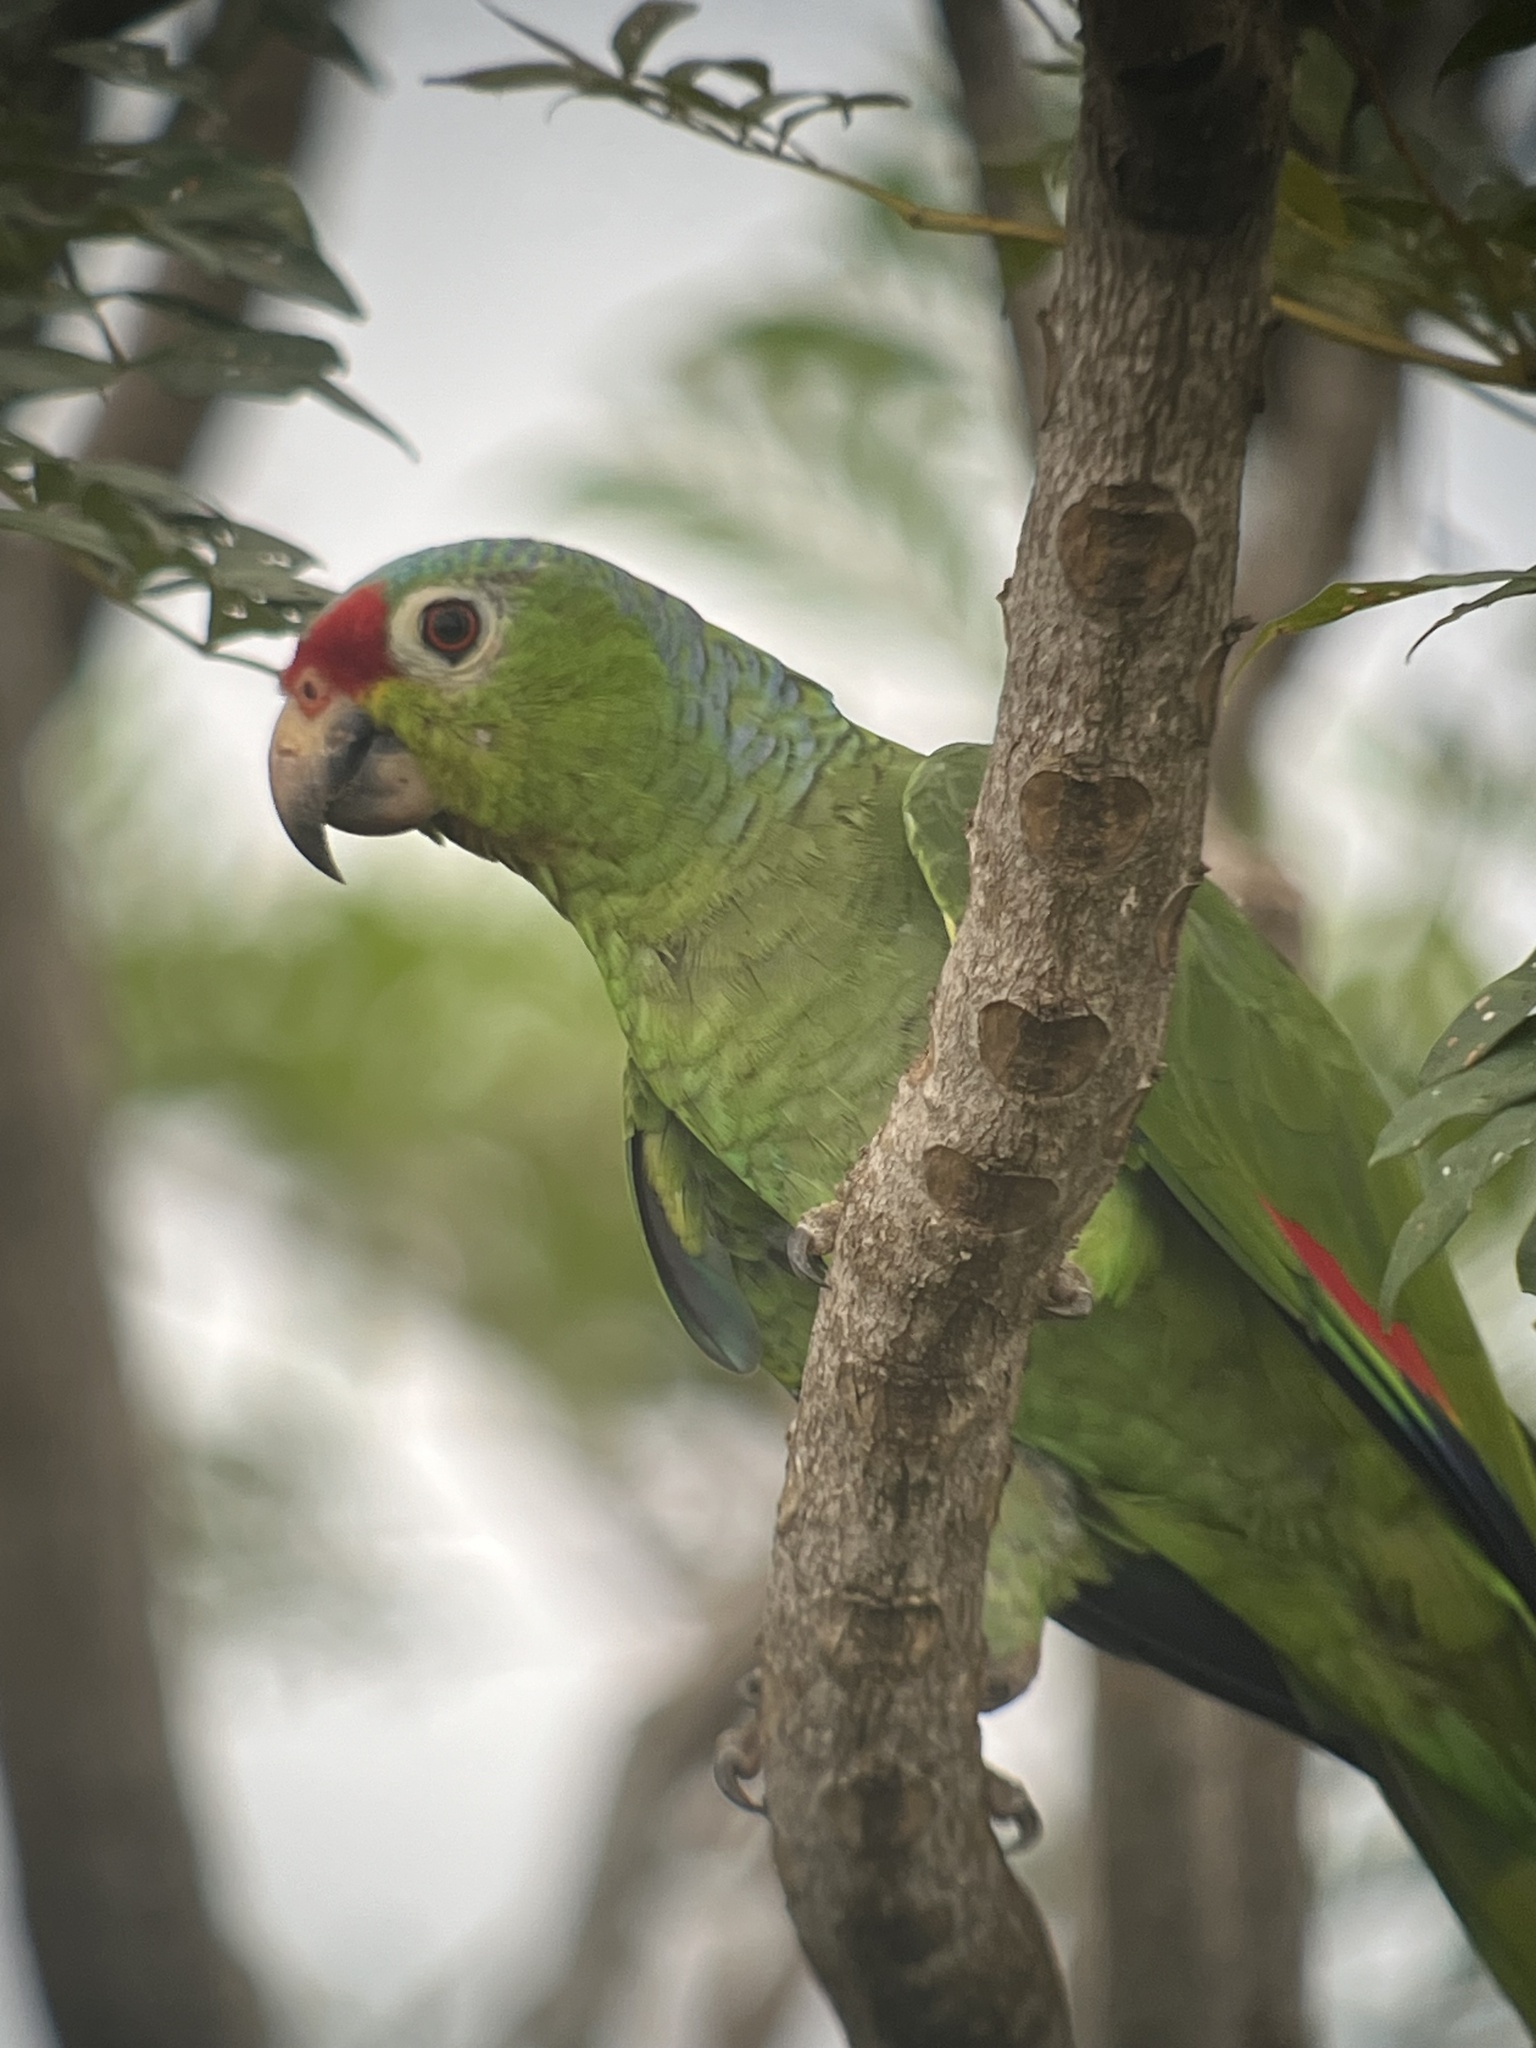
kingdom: Animalia
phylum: Chordata
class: Aves
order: Psittaciformes
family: Psittacidae
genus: Amazona
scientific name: Amazona autumnalis
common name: Red-lored amazon
